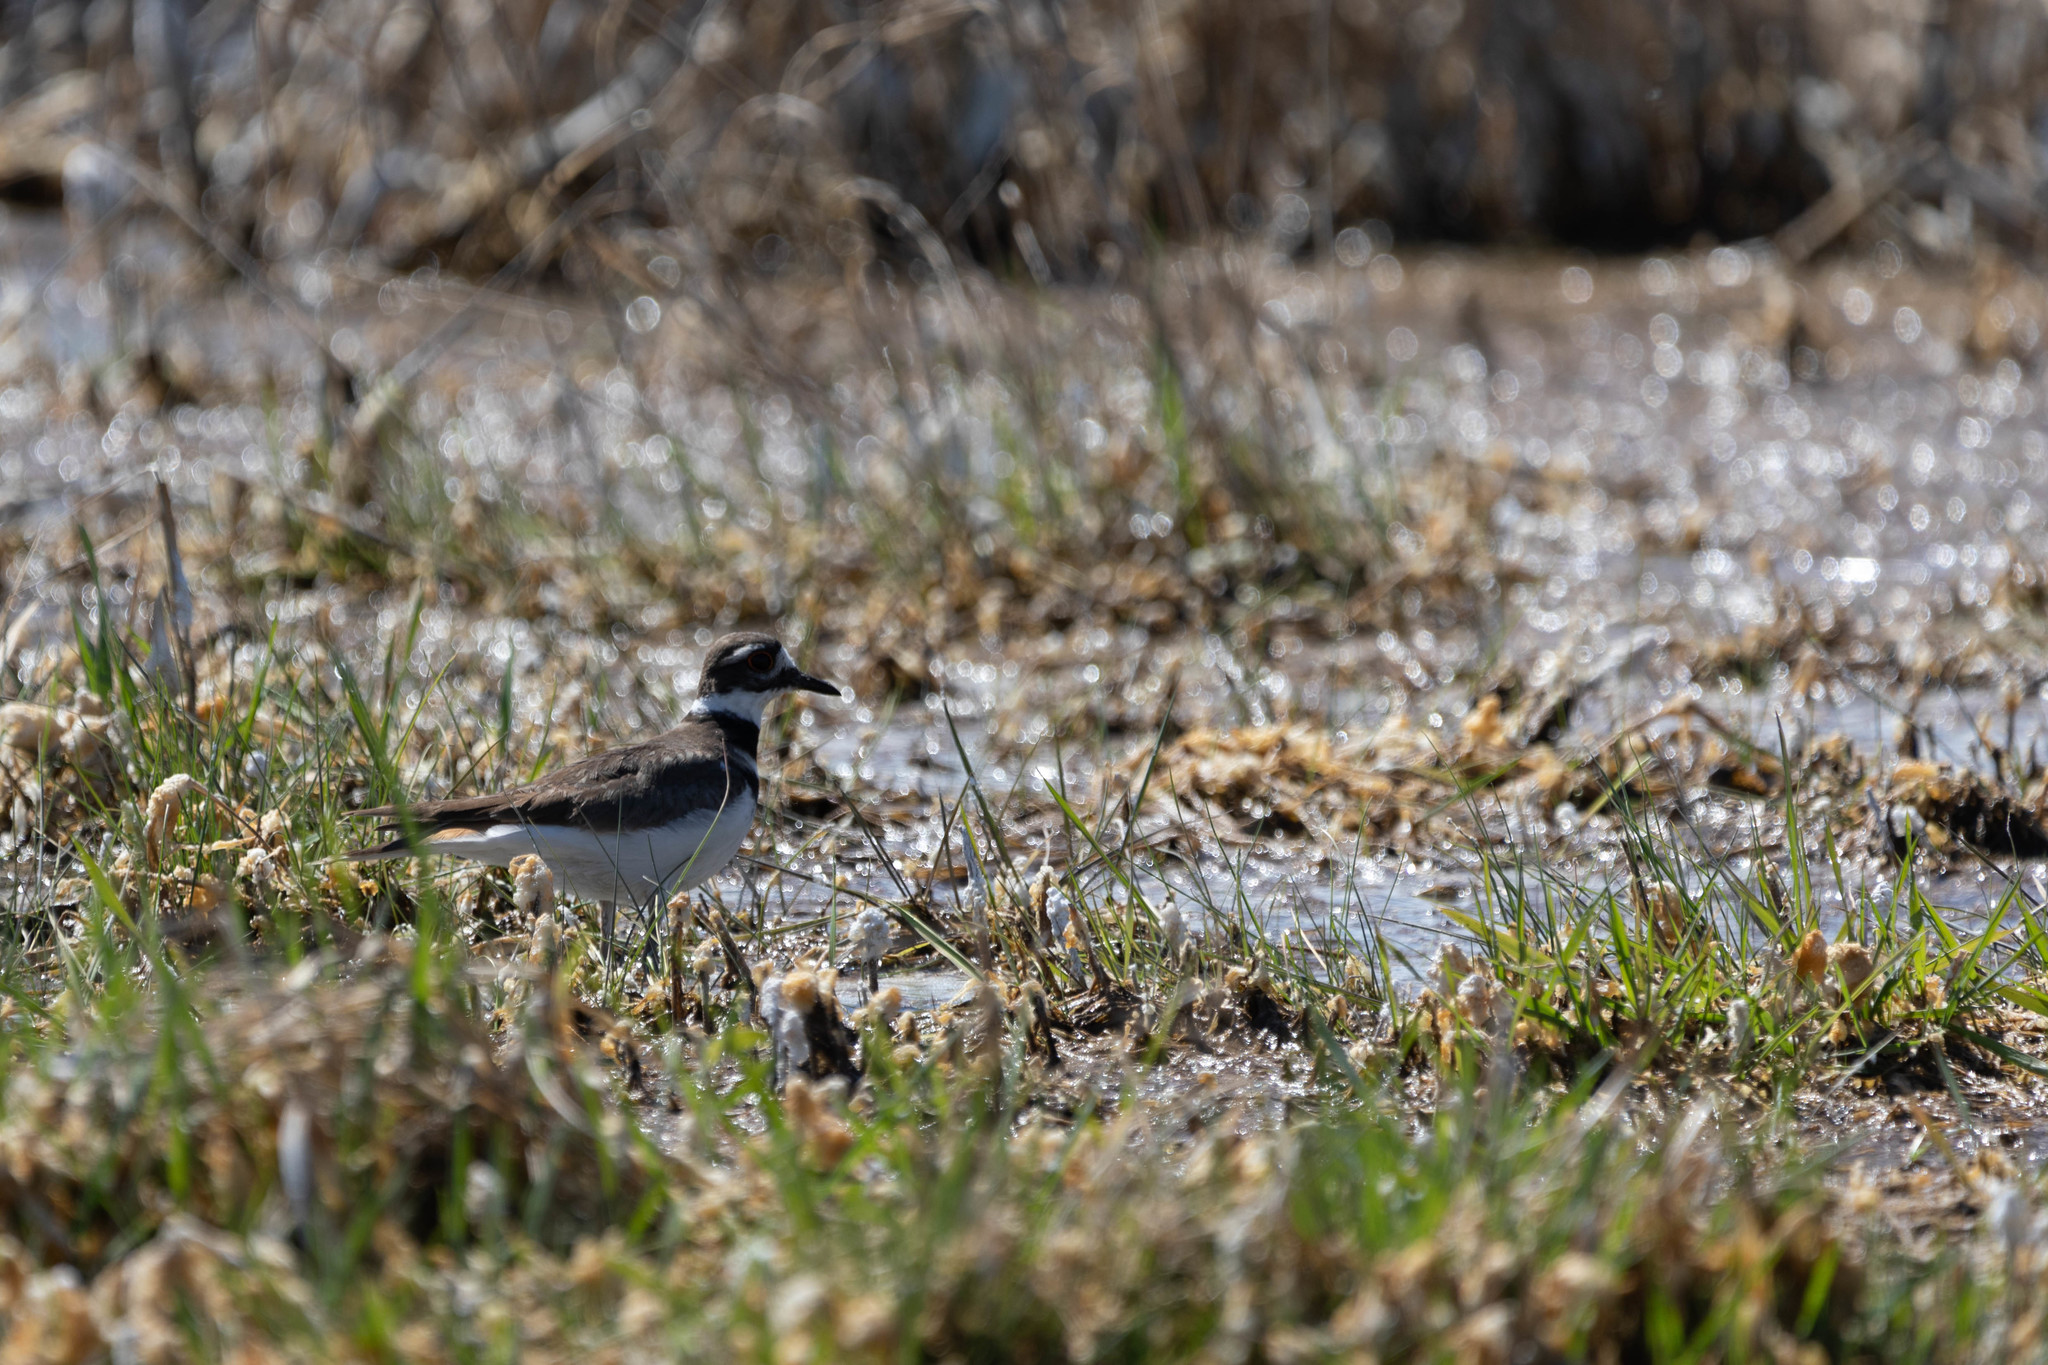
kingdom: Animalia
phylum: Chordata
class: Aves
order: Charadriiformes
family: Charadriidae
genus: Charadrius
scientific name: Charadrius vociferus
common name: Killdeer
